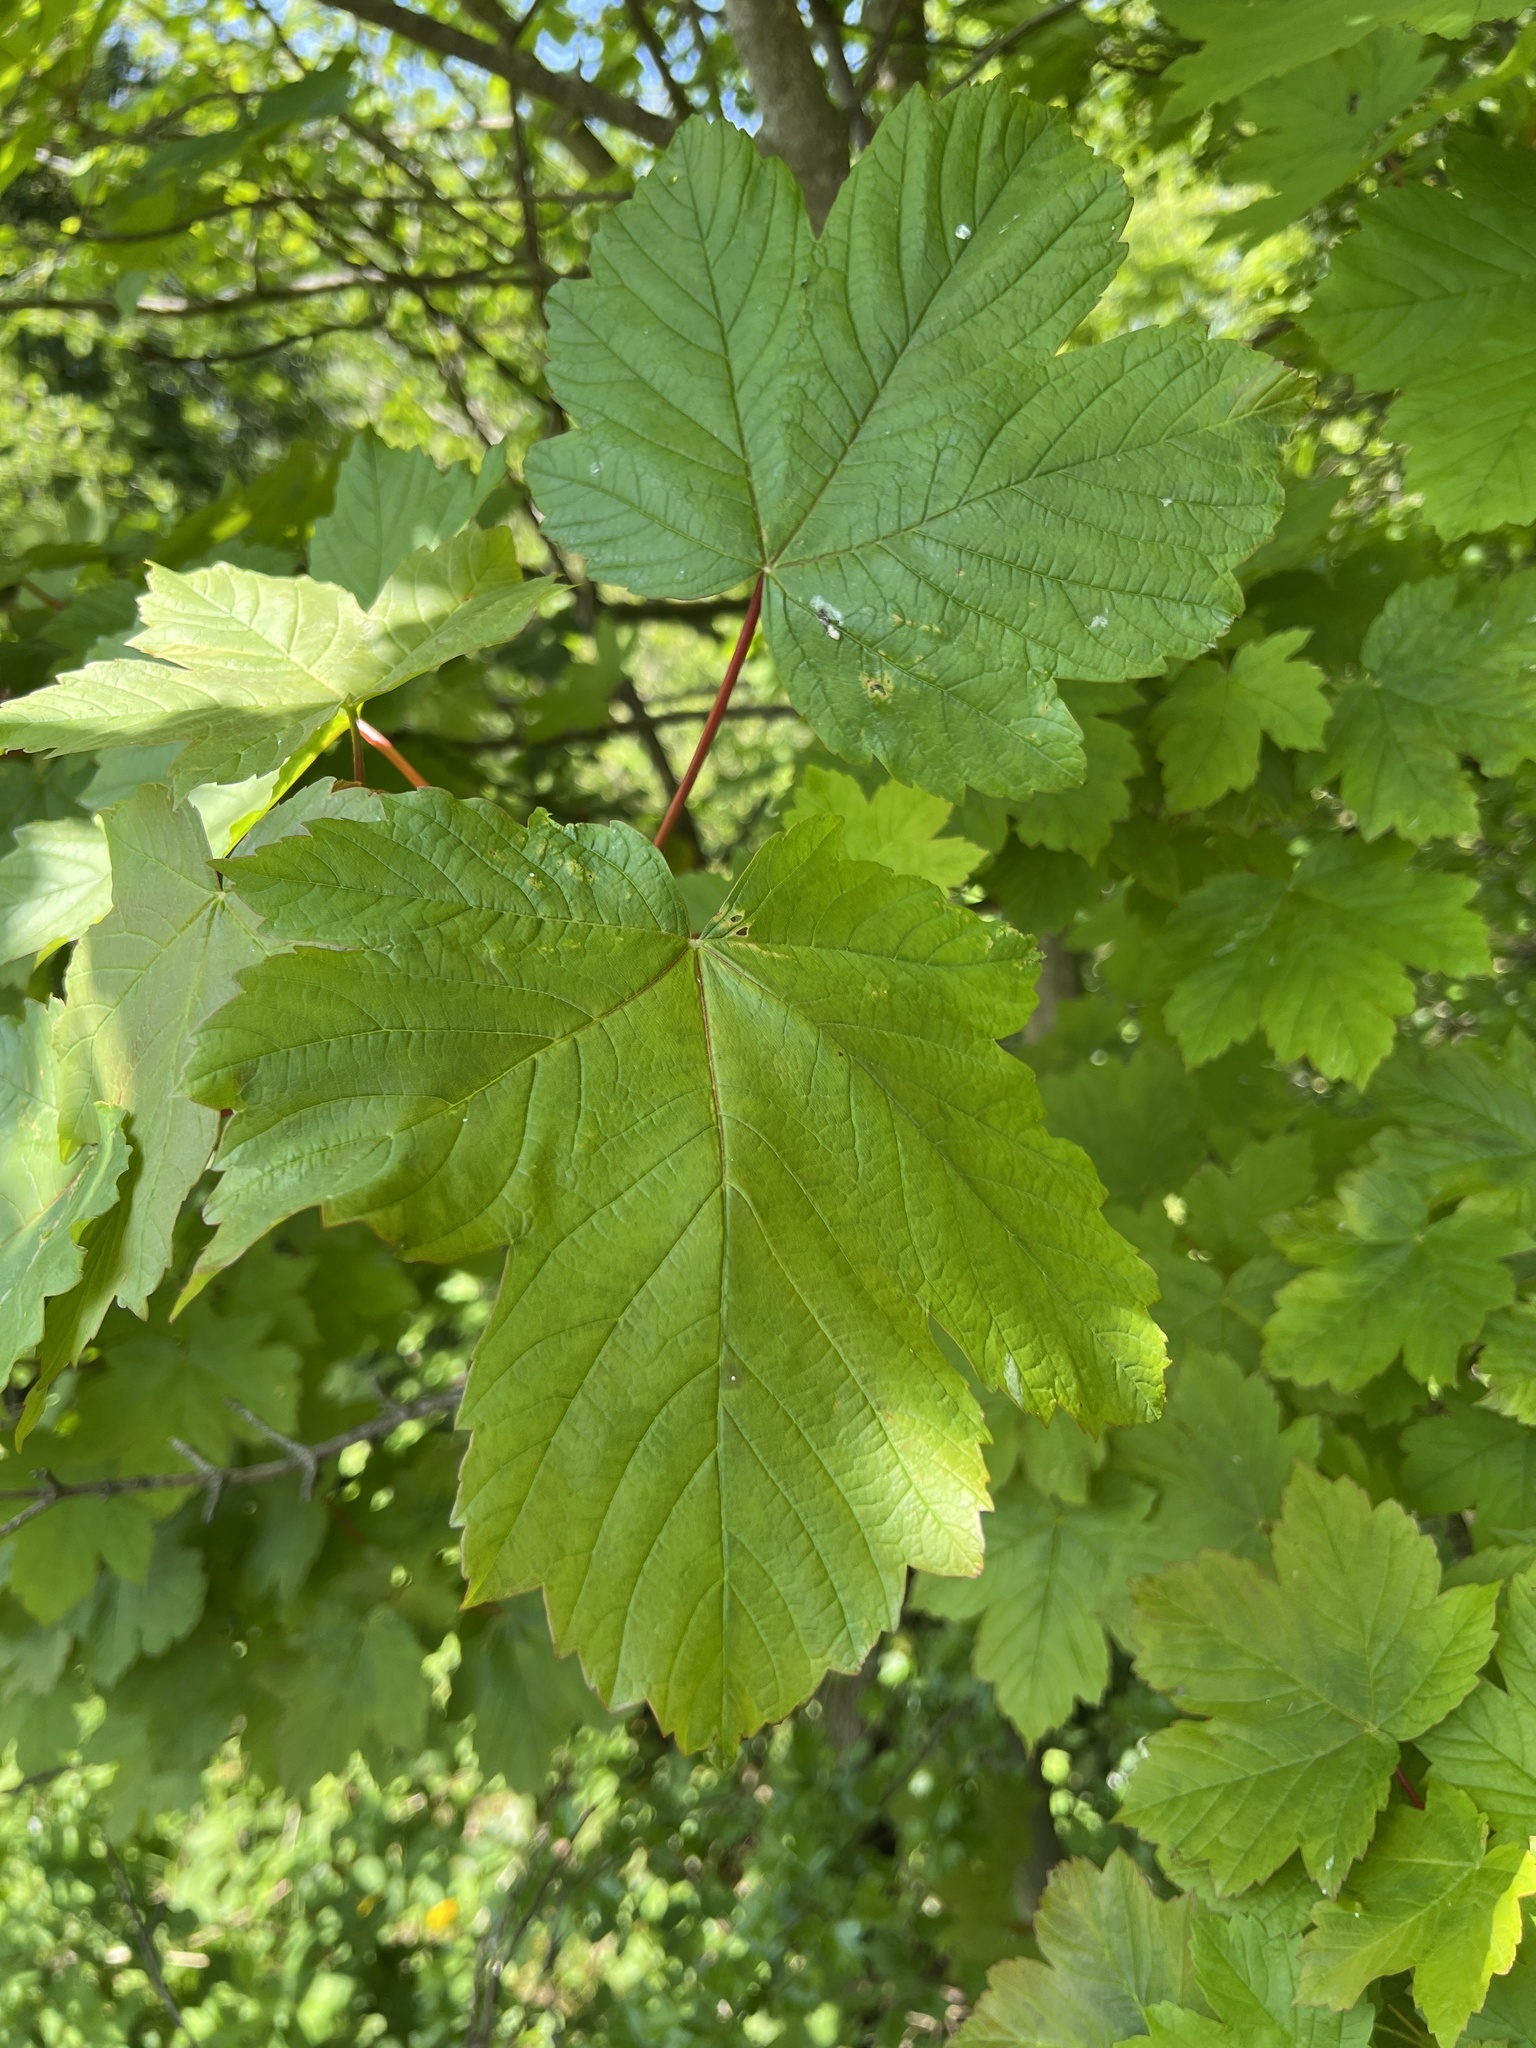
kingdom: Plantae
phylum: Tracheophyta
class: Magnoliopsida
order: Sapindales
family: Sapindaceae
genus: Acer
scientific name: Acer pseudoplatanus
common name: Sycamore
